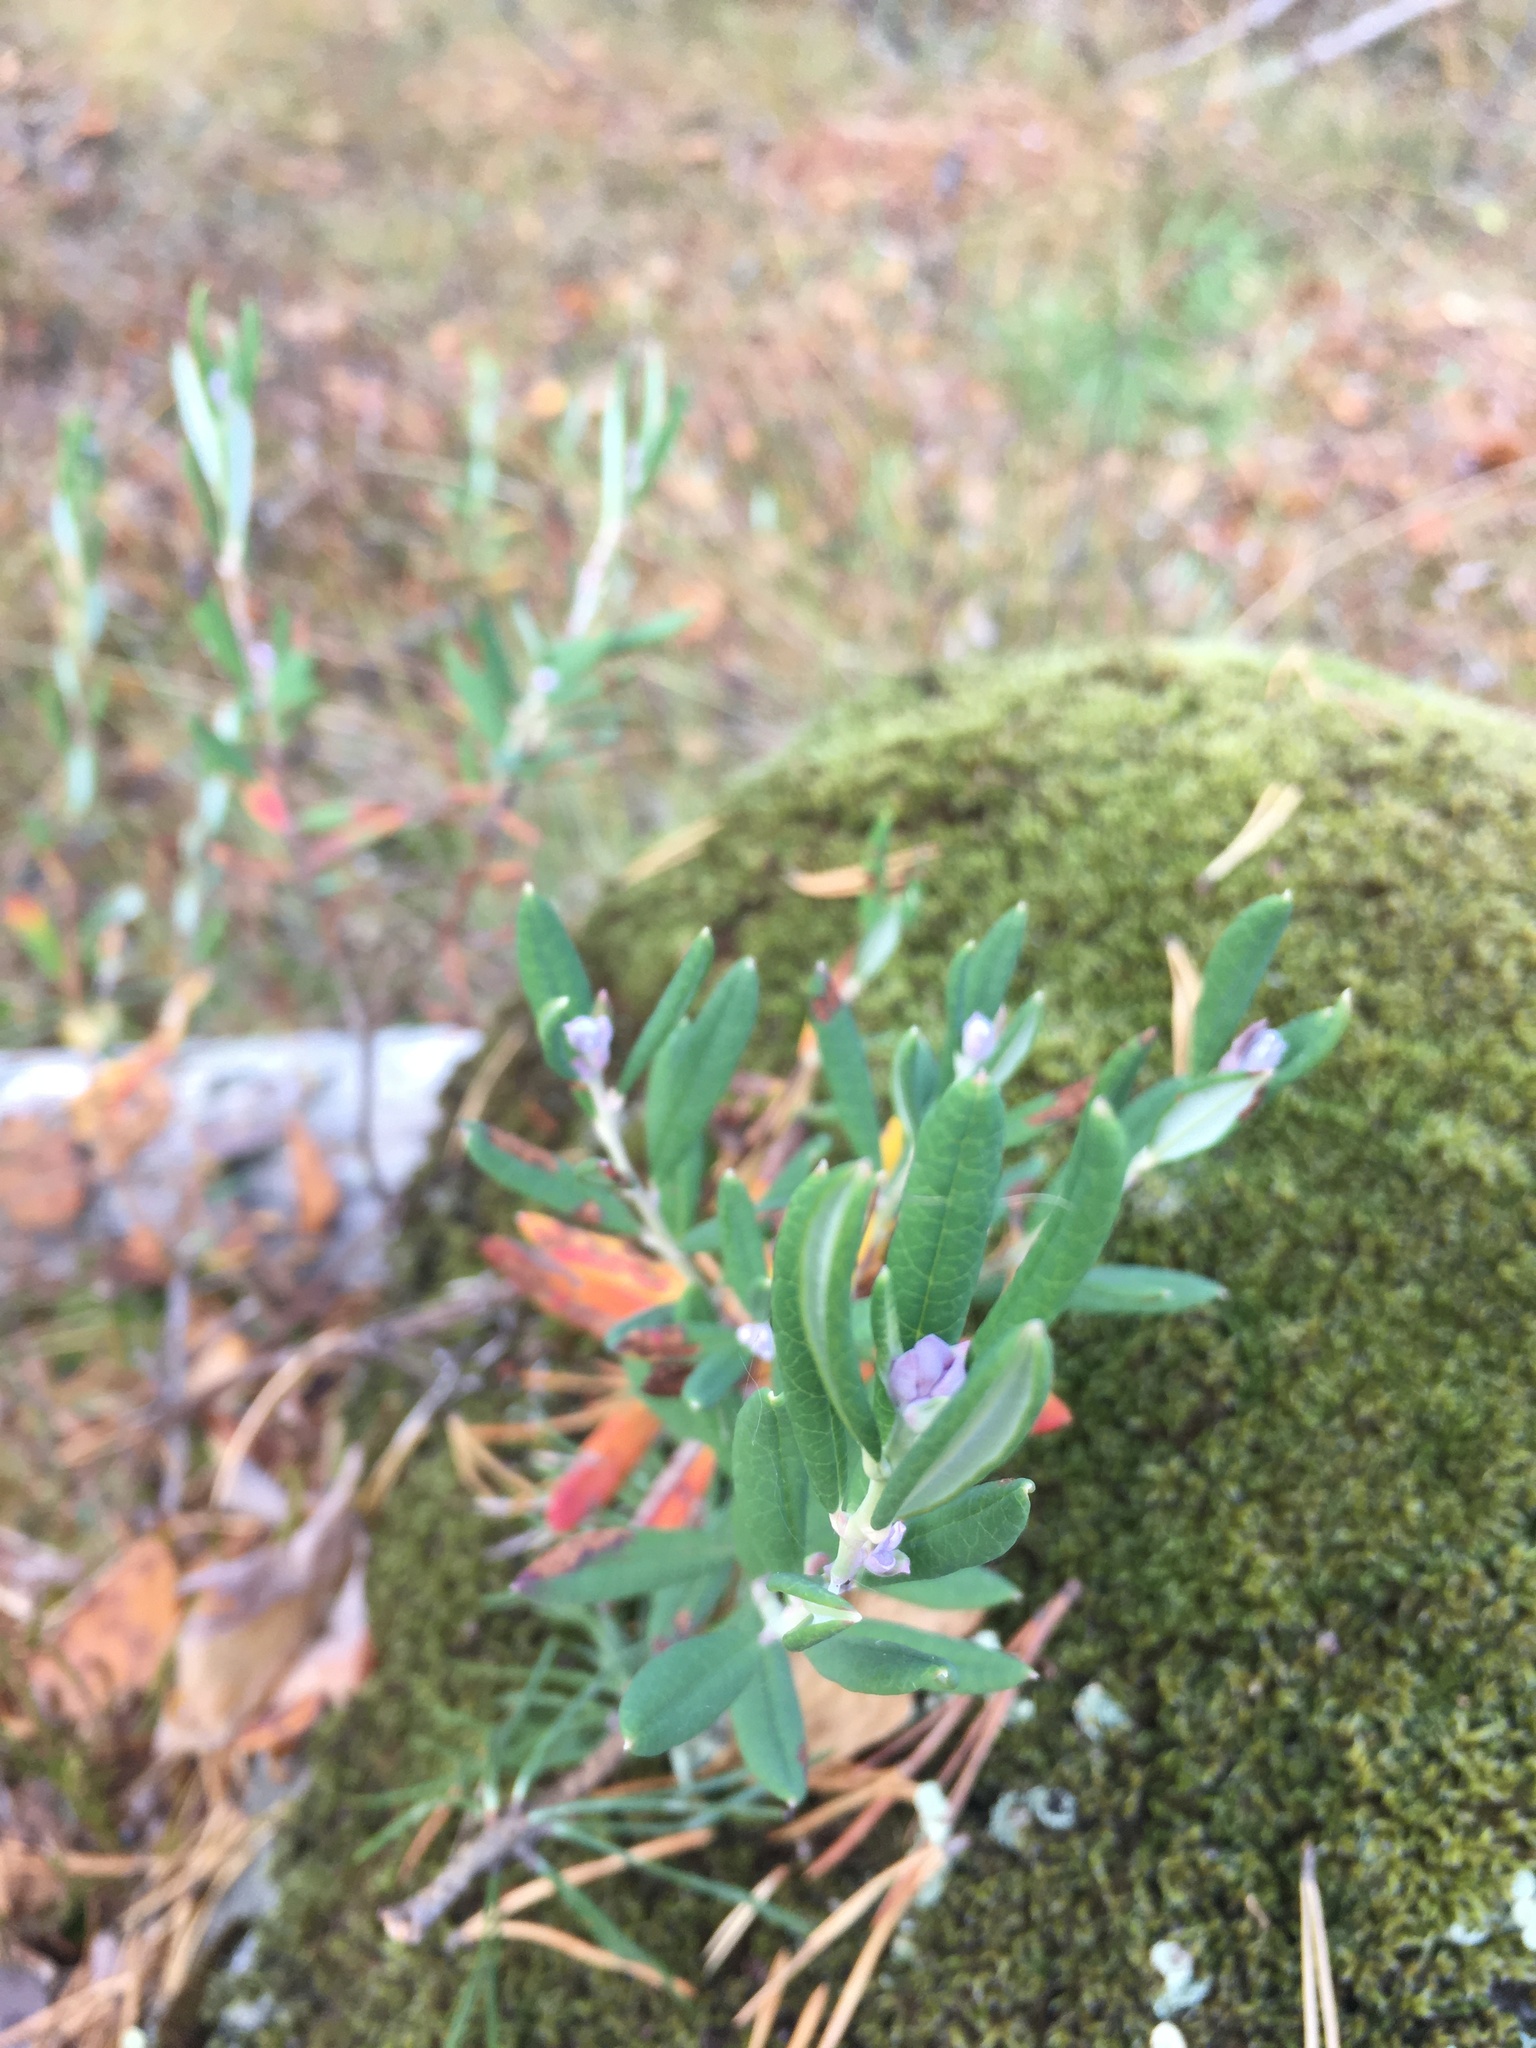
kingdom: Plantae
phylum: Tracheophyta
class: Magnoliopsida
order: Ericales
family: Ericaceae
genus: Andromeda
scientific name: Andromeda polifolia
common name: Bog-rosemary
